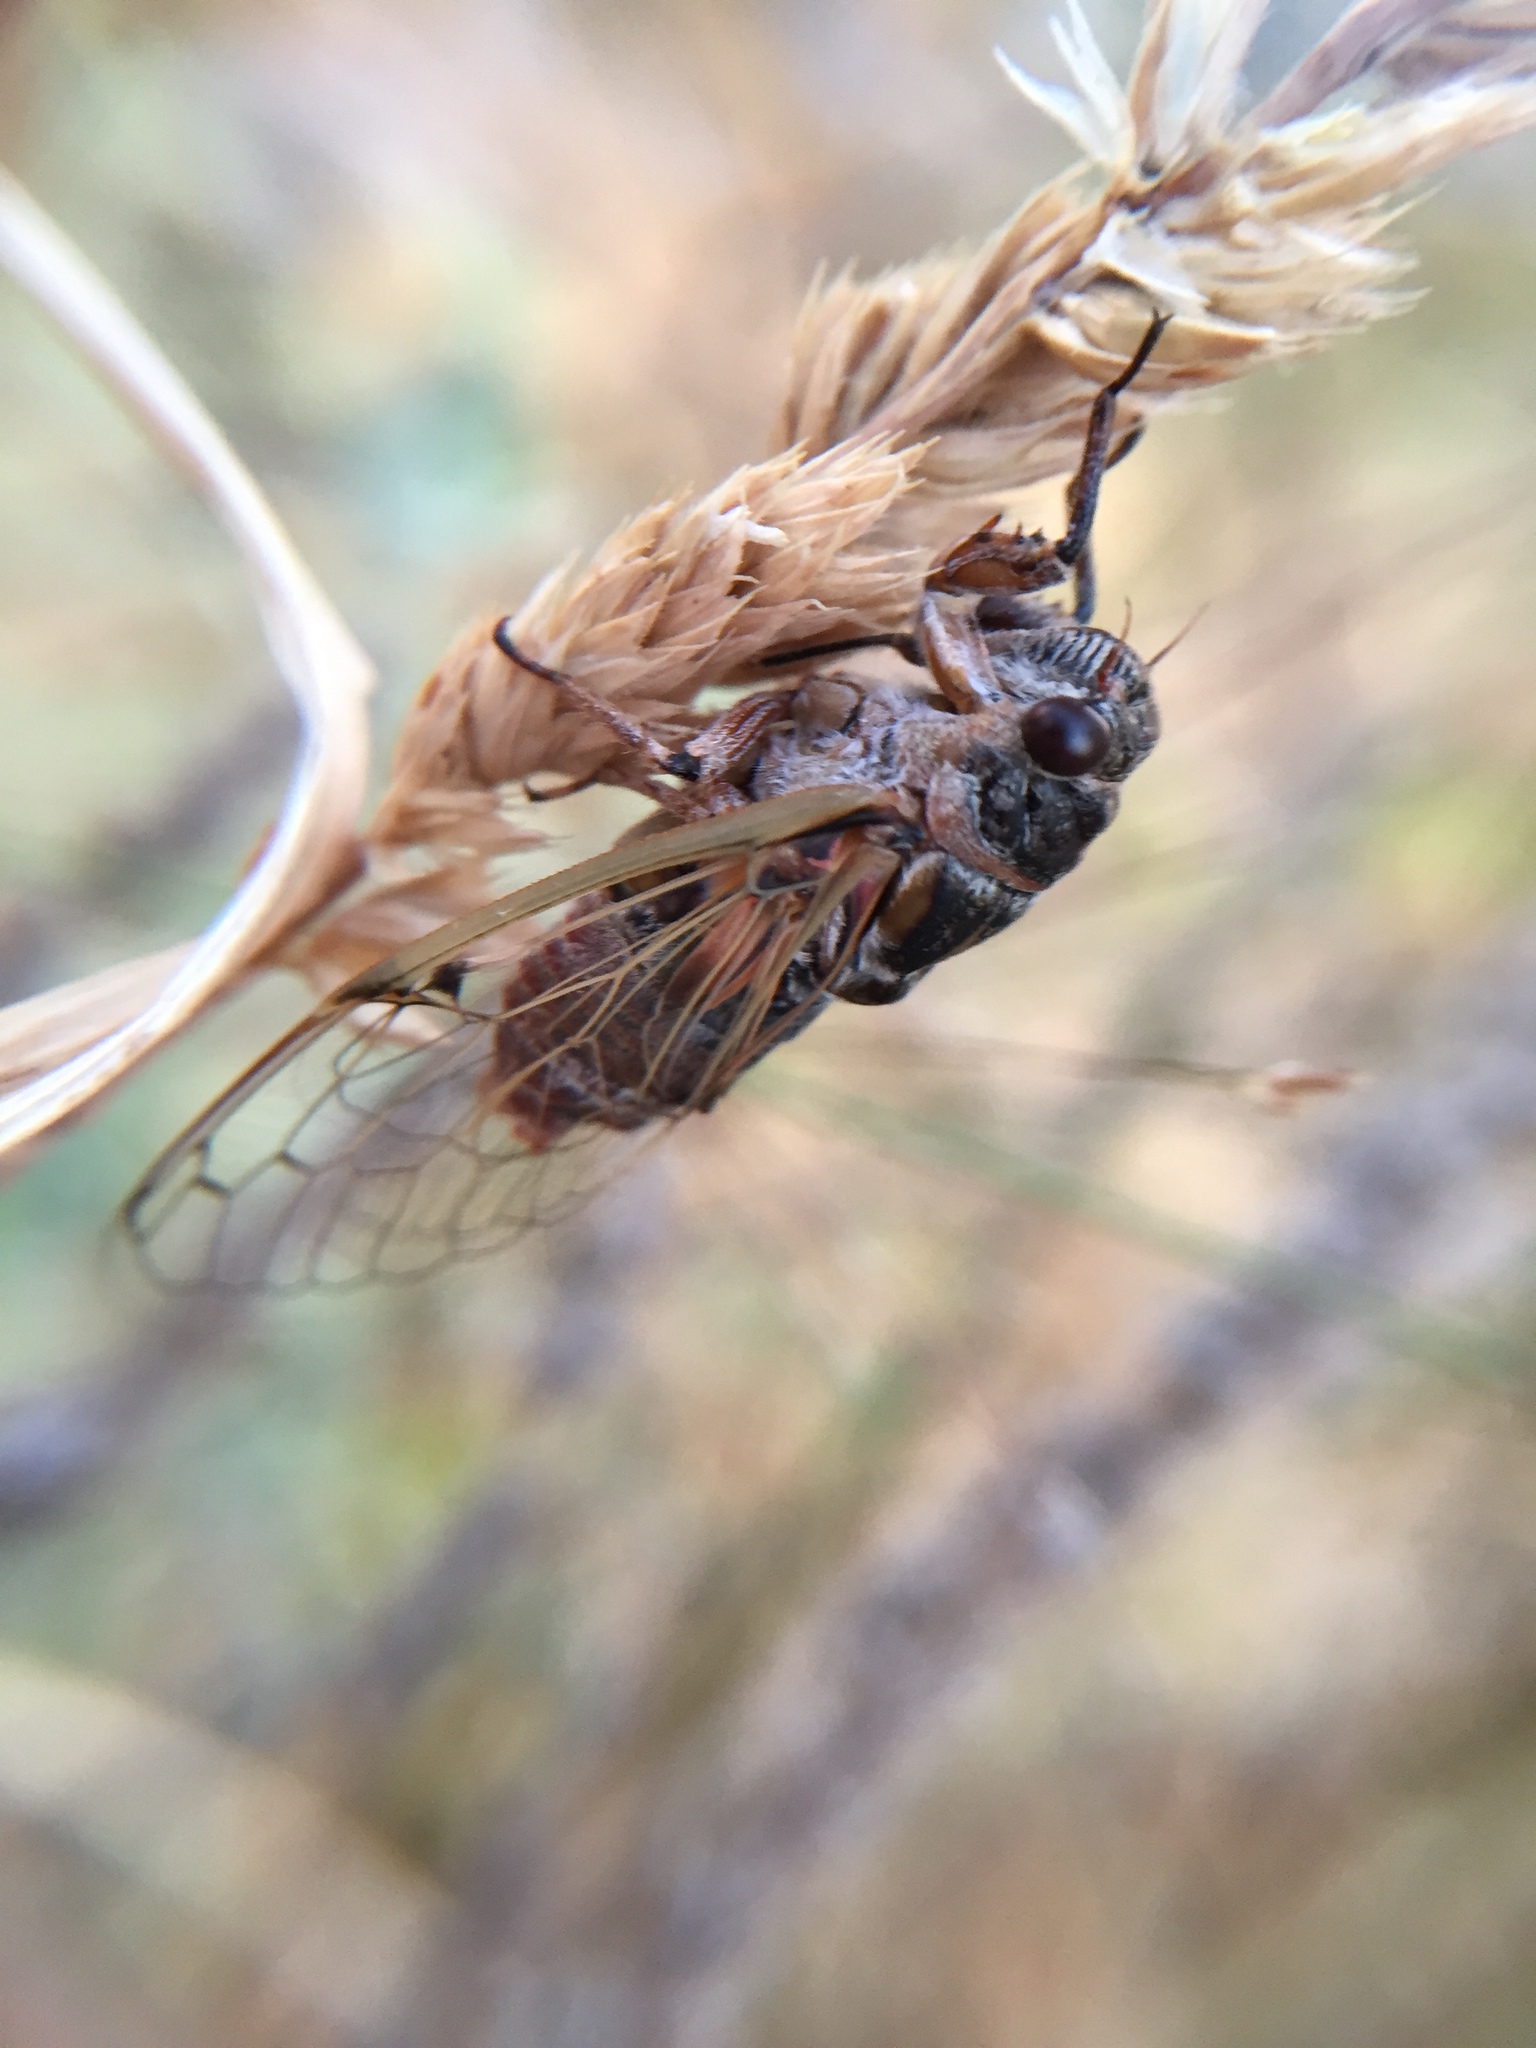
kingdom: Animalia
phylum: Arthropoda
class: Insecta
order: Hemiptera
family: Cicadidae
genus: Cicadatra
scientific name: Cicadatra atra
